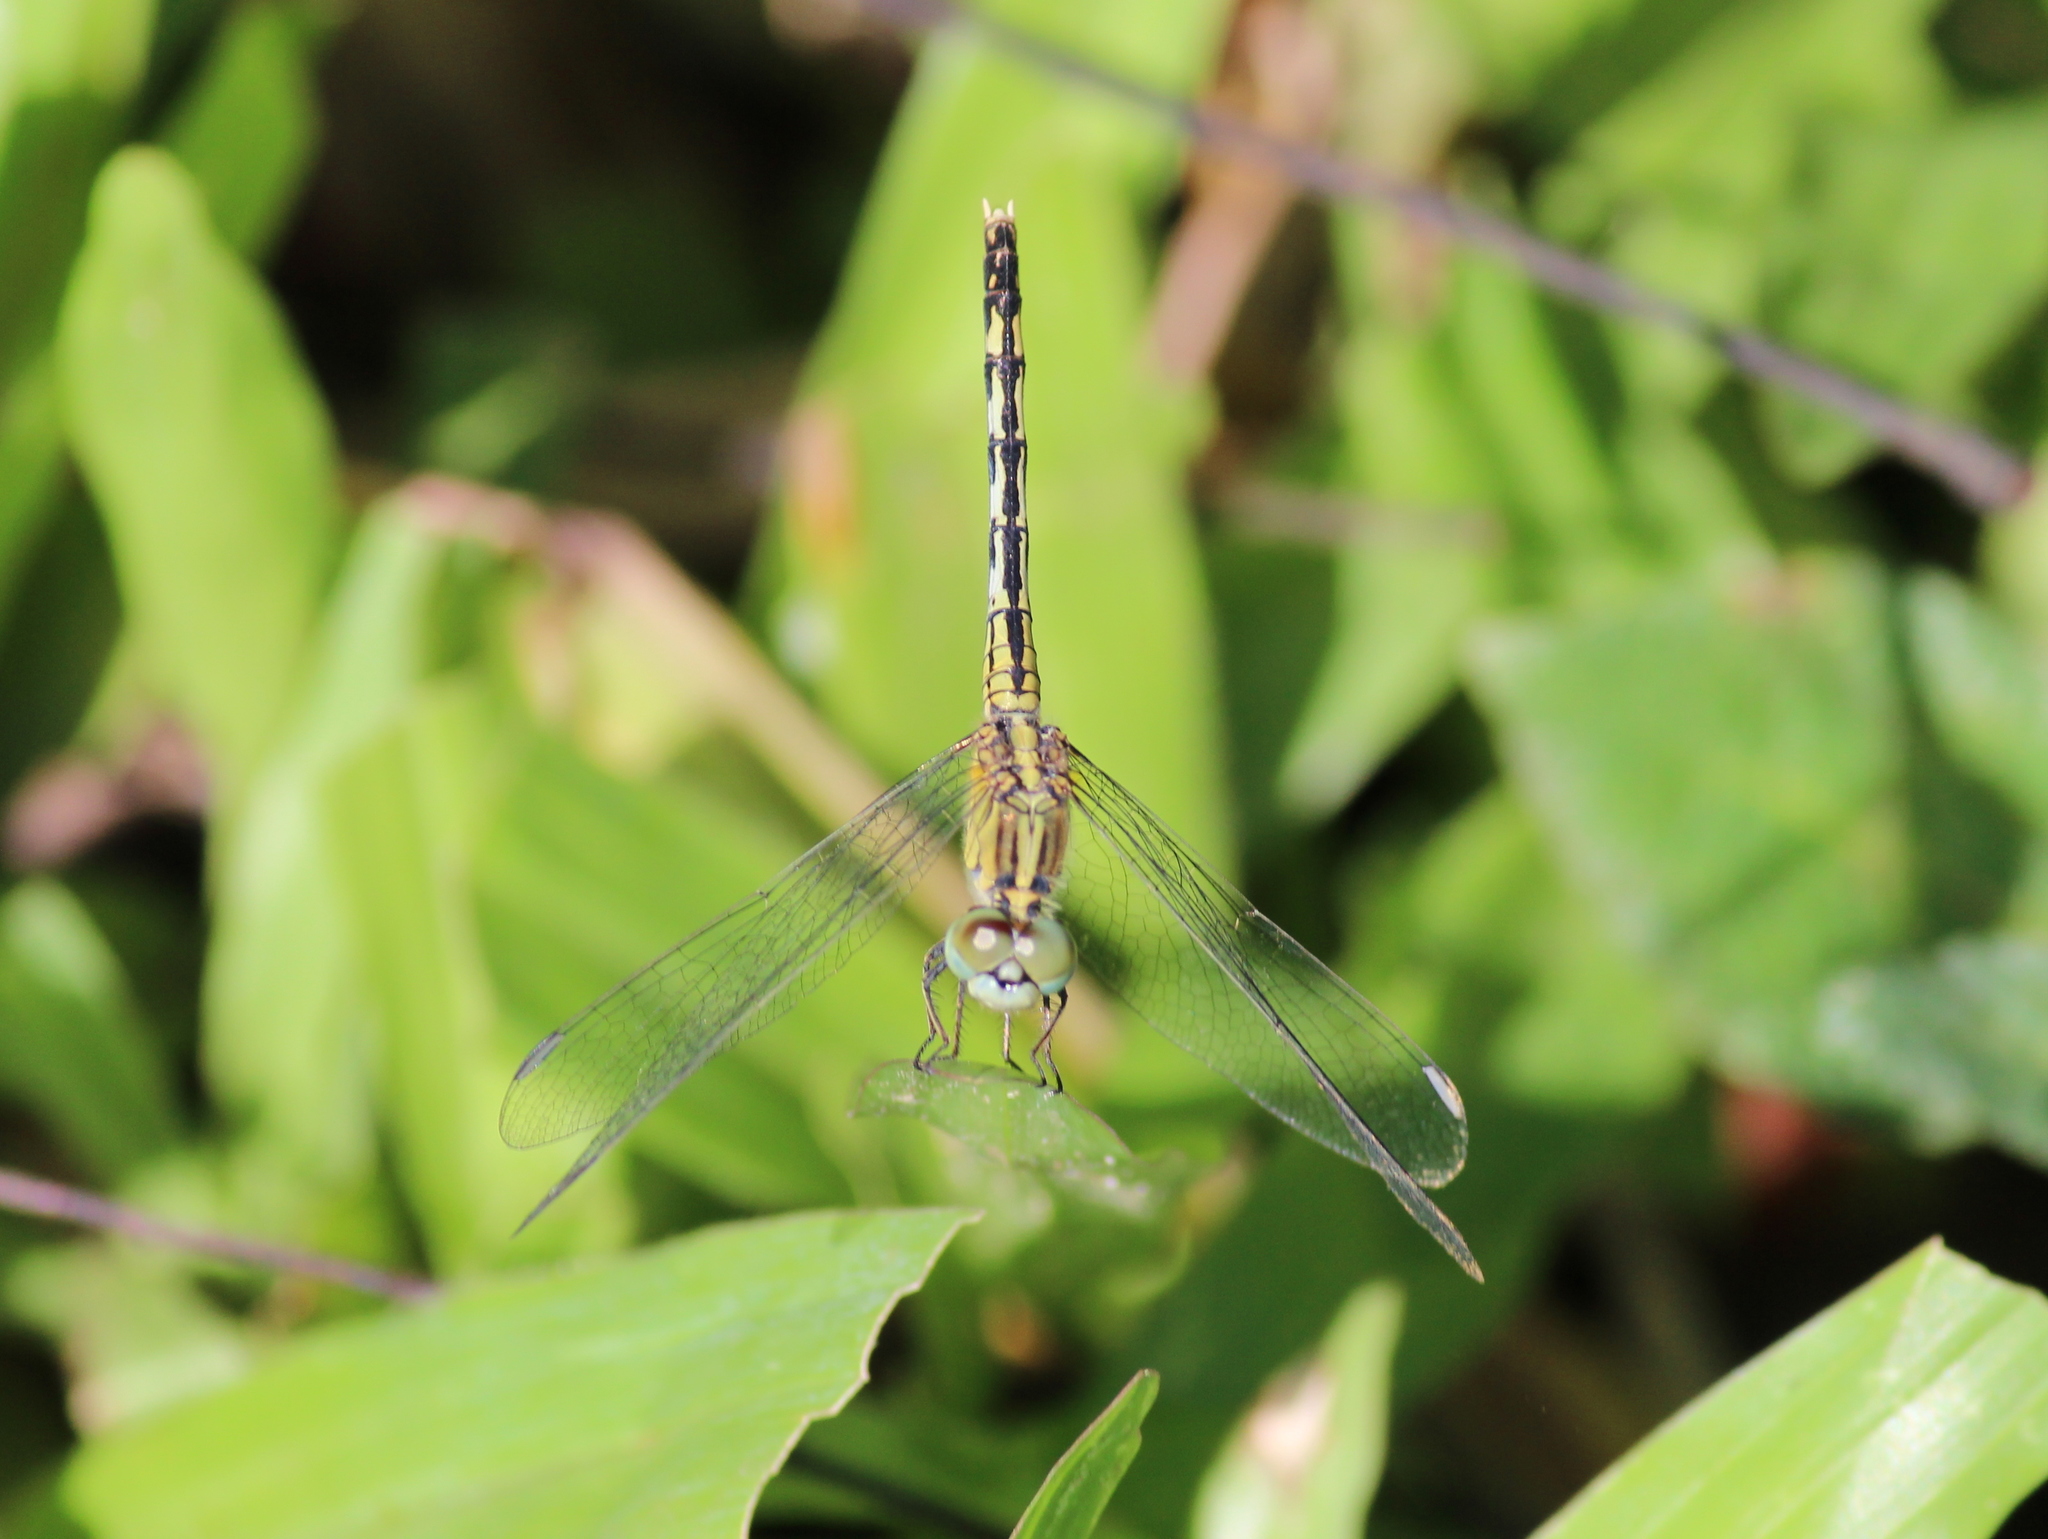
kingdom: Animalia
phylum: Arthropoda
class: Insecta
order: Odonata
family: Libellulidae
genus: Diplacodes
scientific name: Diplacodes trivialis
